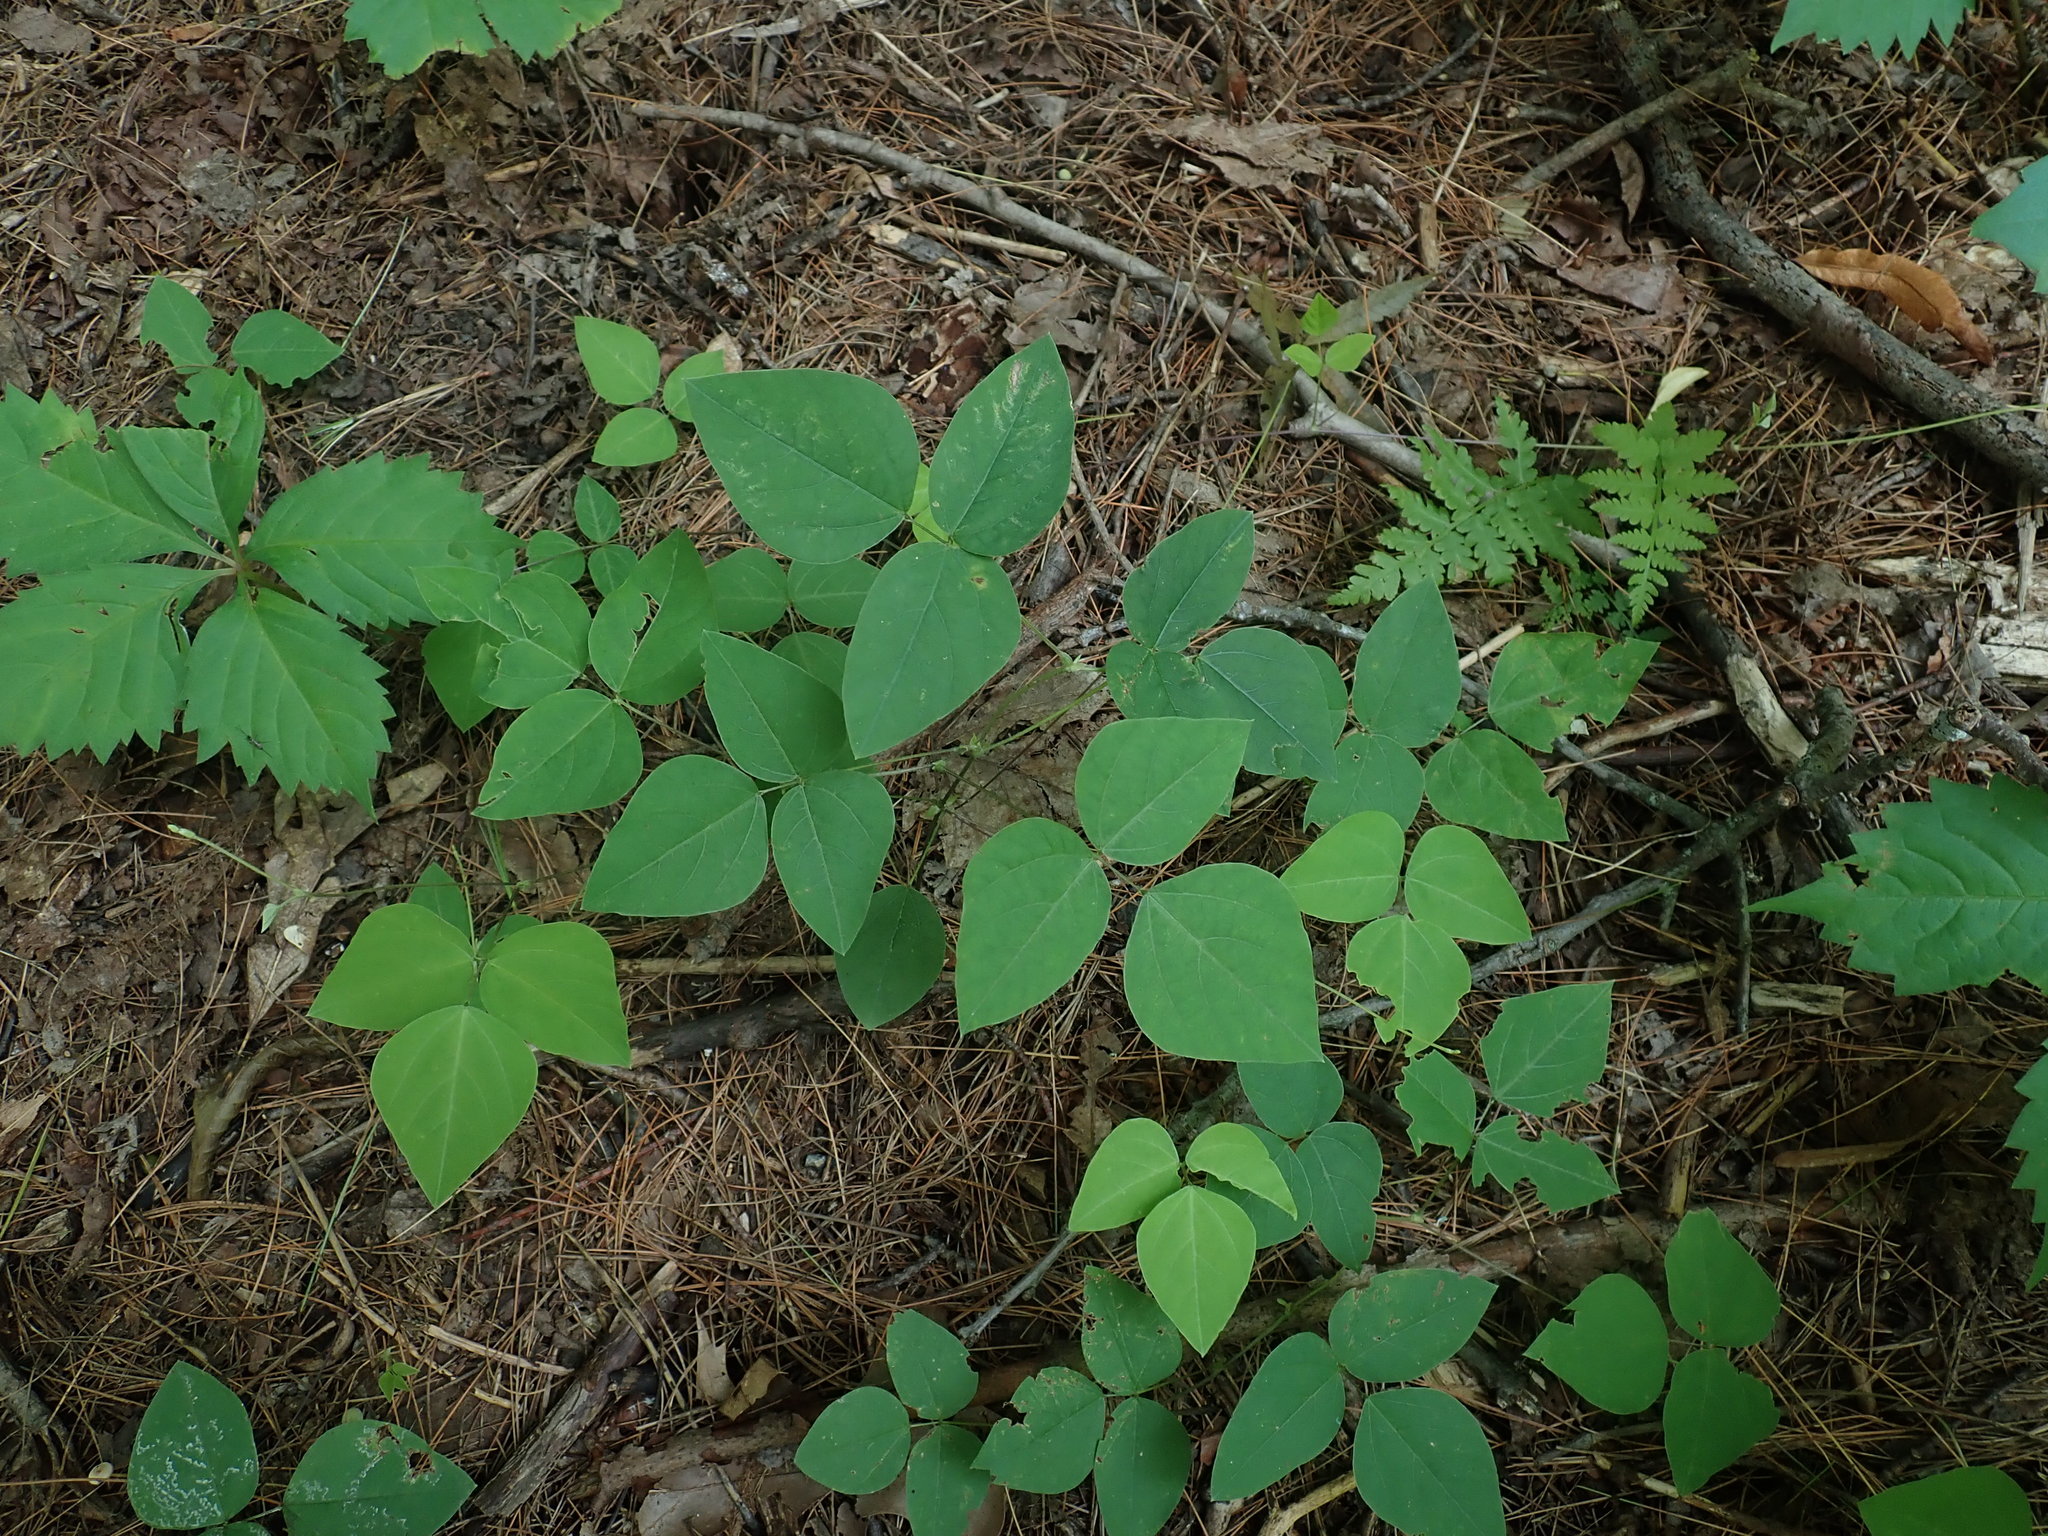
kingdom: Plantae
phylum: Tracheophyta
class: Magnoliopsida
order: Fabales
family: Fabaceae
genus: Amphicarpaea
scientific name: Amphicarpaea bracteata
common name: American hog peanut
